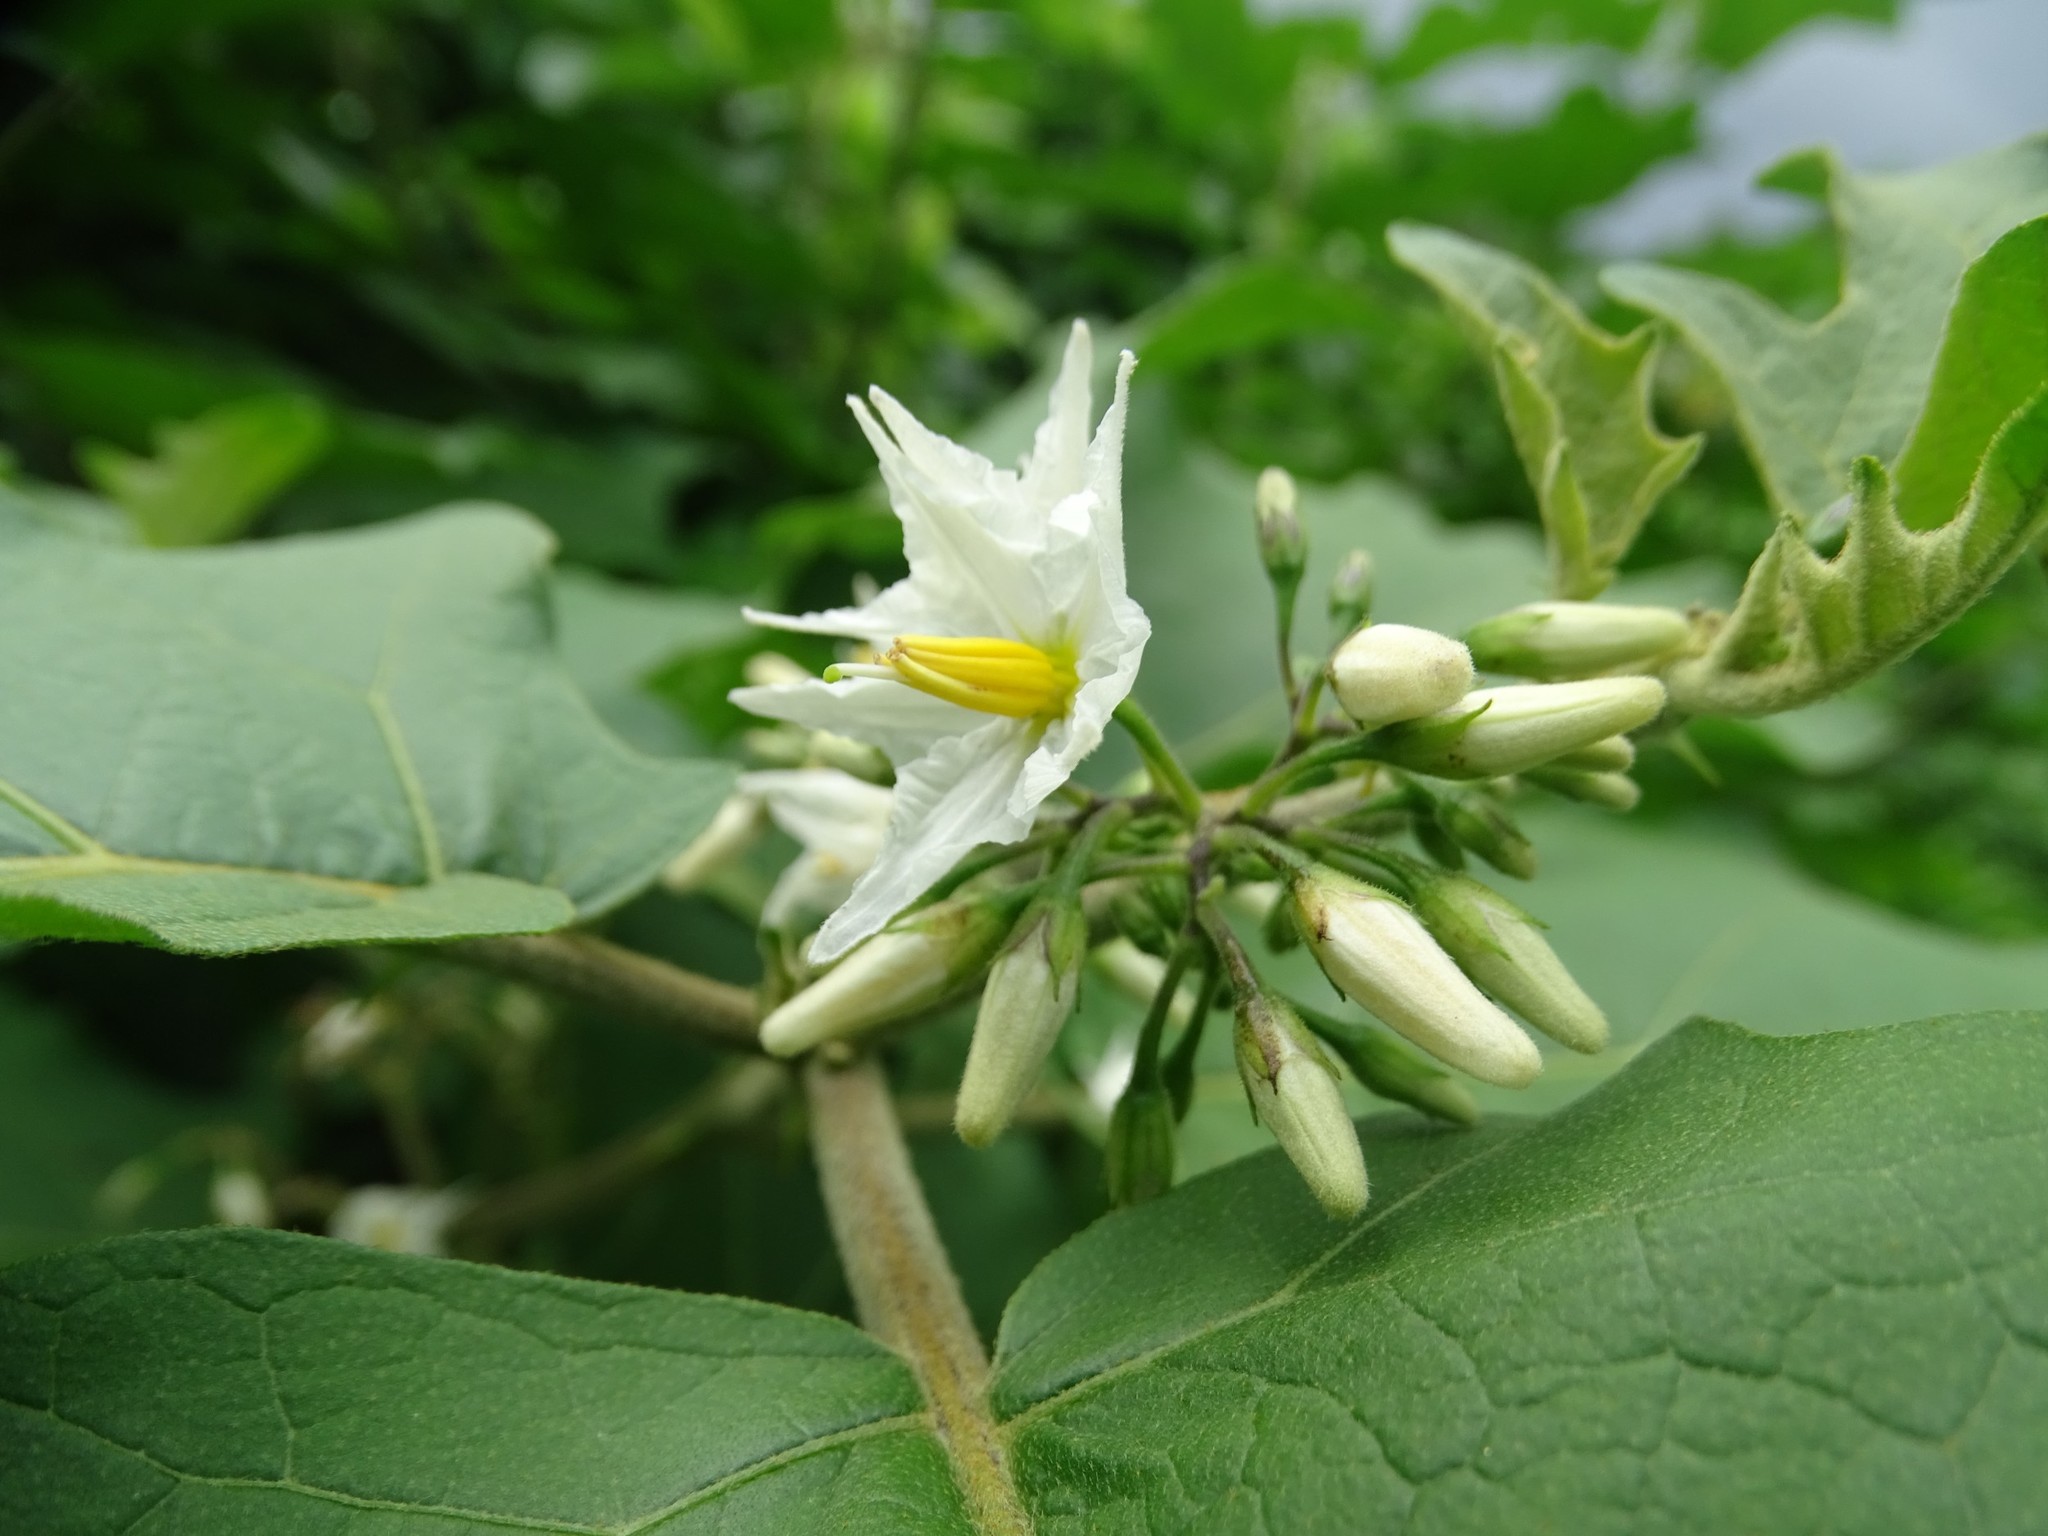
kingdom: Plantae
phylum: Tracheophyta
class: Magnoliopsida
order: Solanales
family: Solanaceae
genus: Solanum
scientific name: Solanum torvum
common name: Turkey berry
